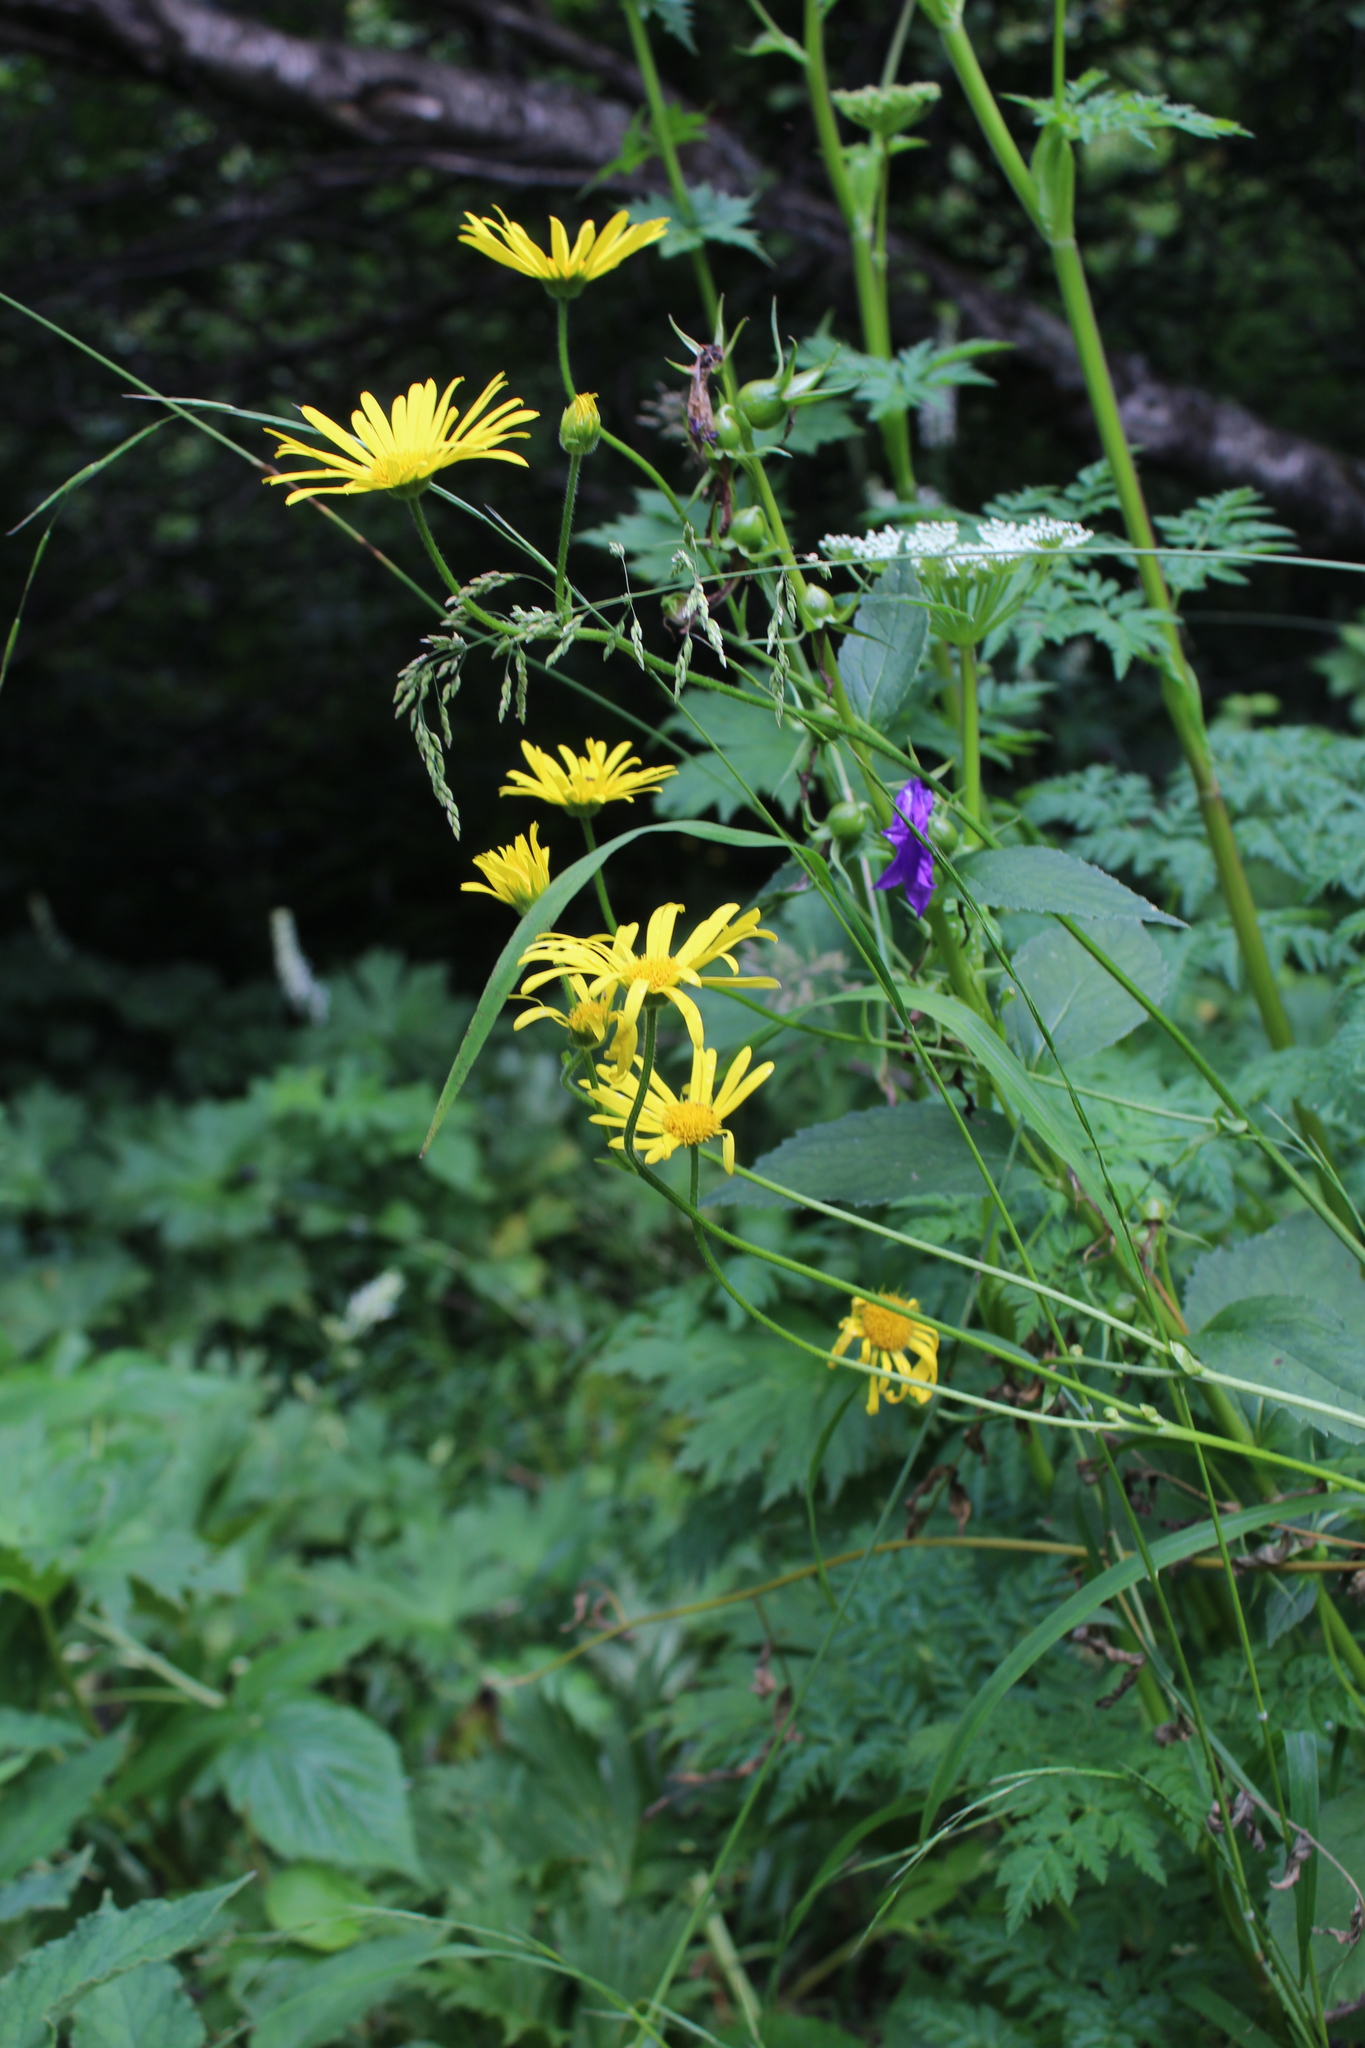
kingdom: Plantae
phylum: Tracheophyta
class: Magnoliopsida
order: Asterales
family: Asteraceae
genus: Doronicum
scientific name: Doronicum macrophyllum
